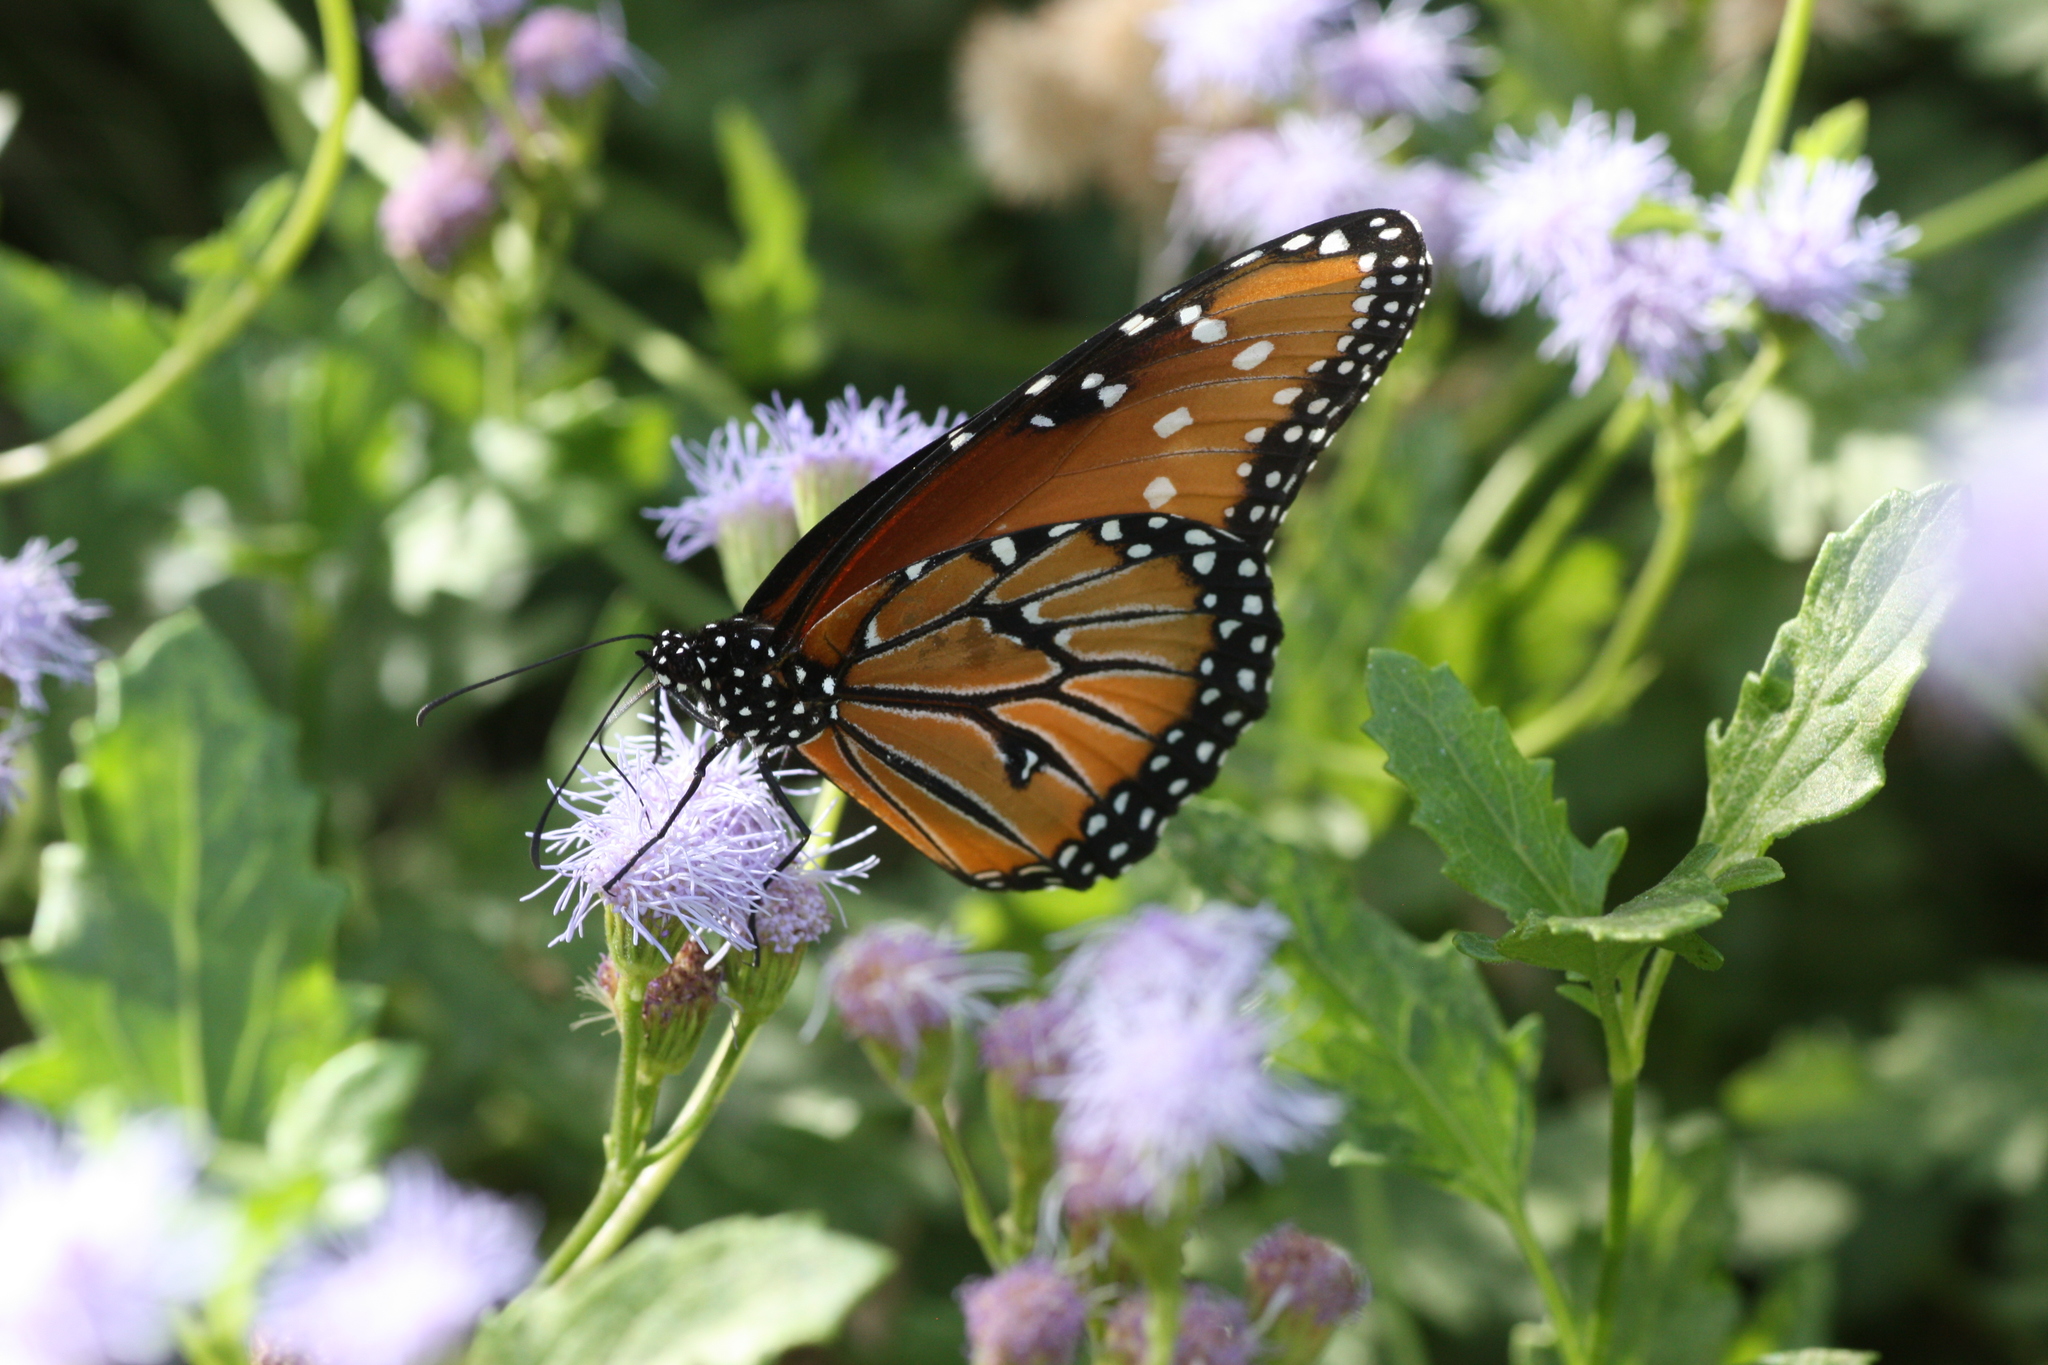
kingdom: Animalia
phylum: Arthropoda
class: Insecta
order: Lepidoptera
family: Nymphalidae
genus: Danaus
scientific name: Danaus gilippus
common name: Queen
